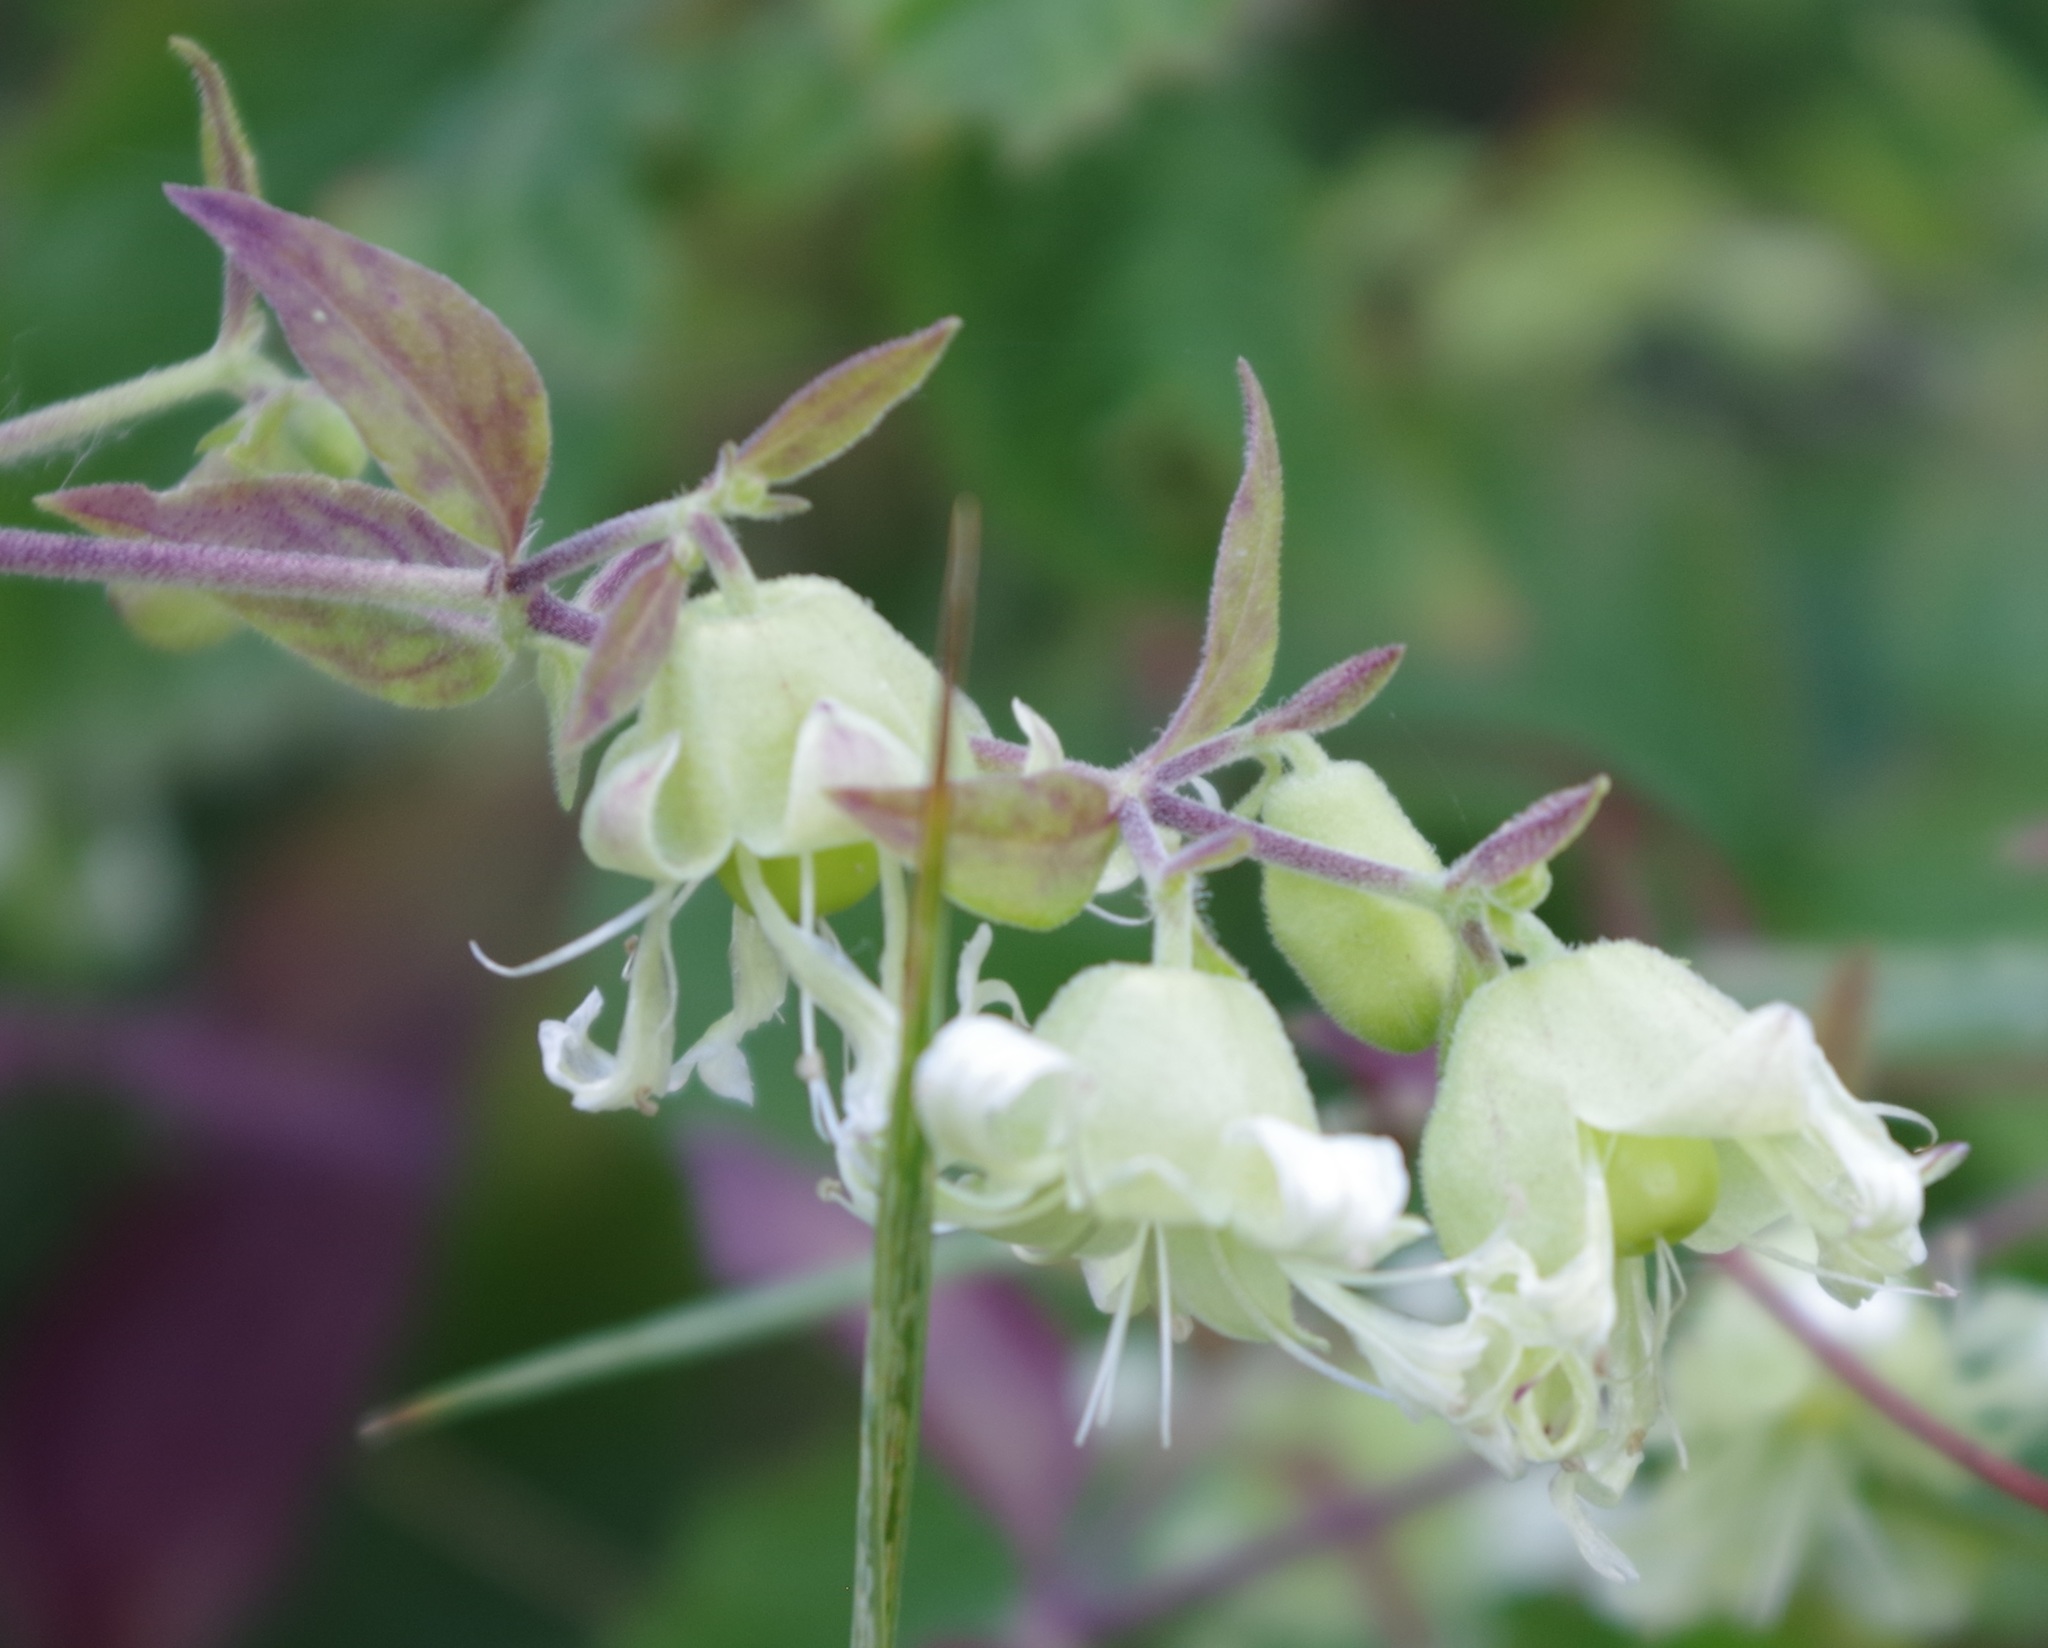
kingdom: Plantae
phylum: Tracheophyta
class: Magnoliopsida
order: Caryophyllales
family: Caryophyllaceae
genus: Silene
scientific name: Silene baccifera
